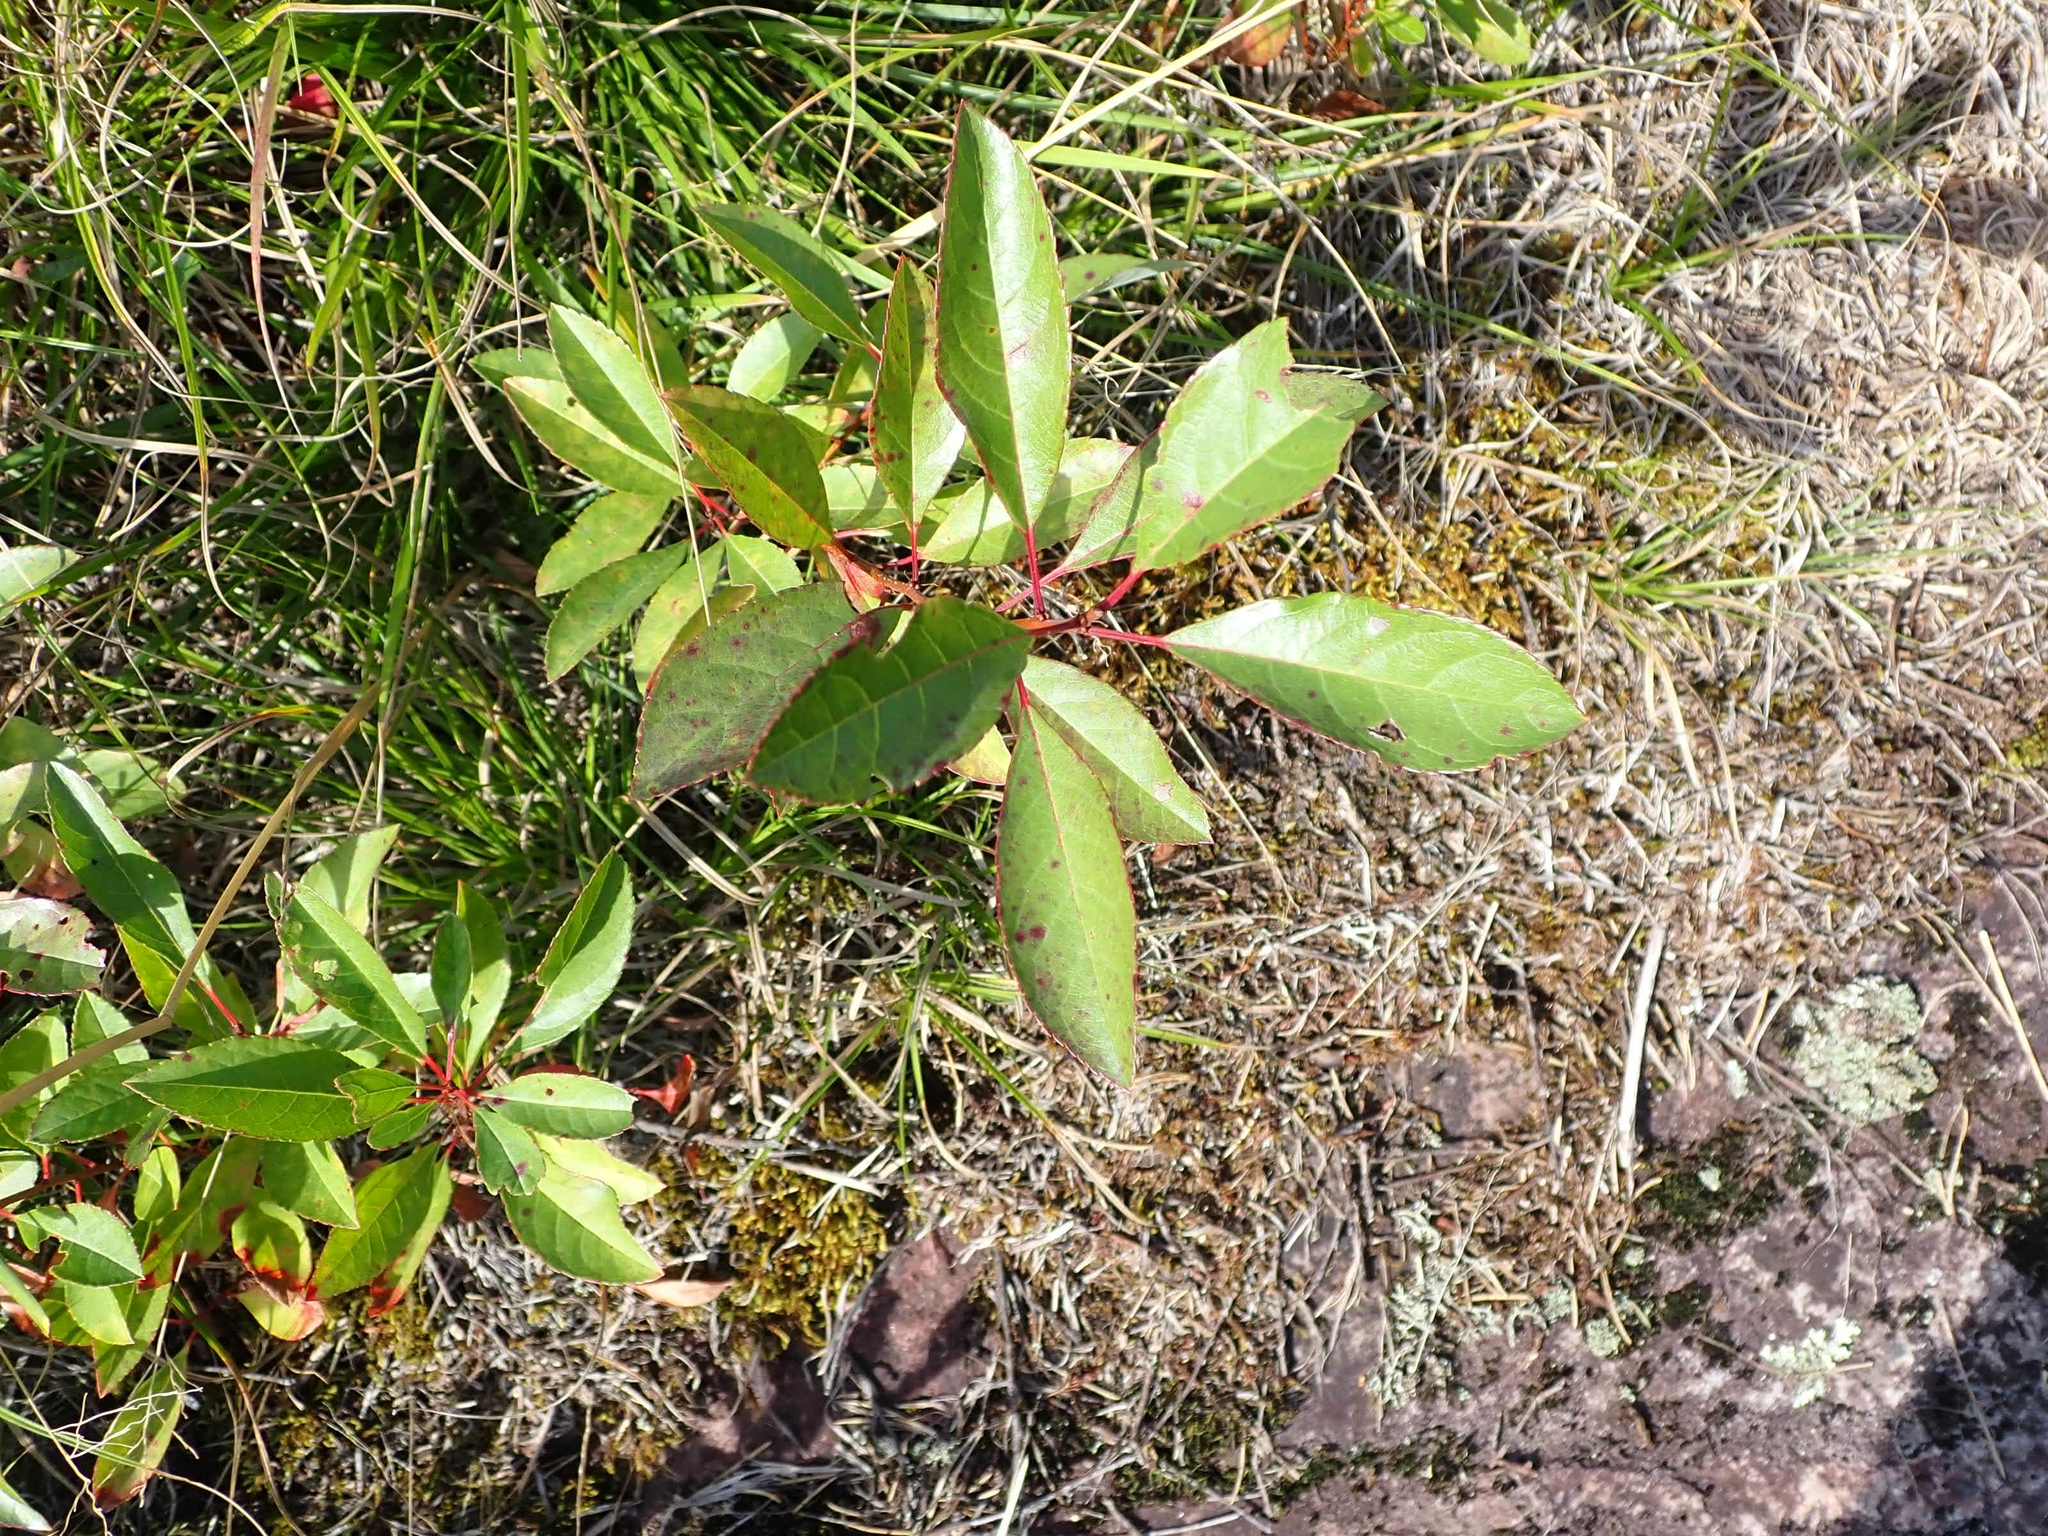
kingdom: Plantae
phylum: Tracheophyta
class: Magnoliopsida
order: Rosales
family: Rosaceae
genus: Prunus
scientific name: Prunus pumila
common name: Dwarf cherry
